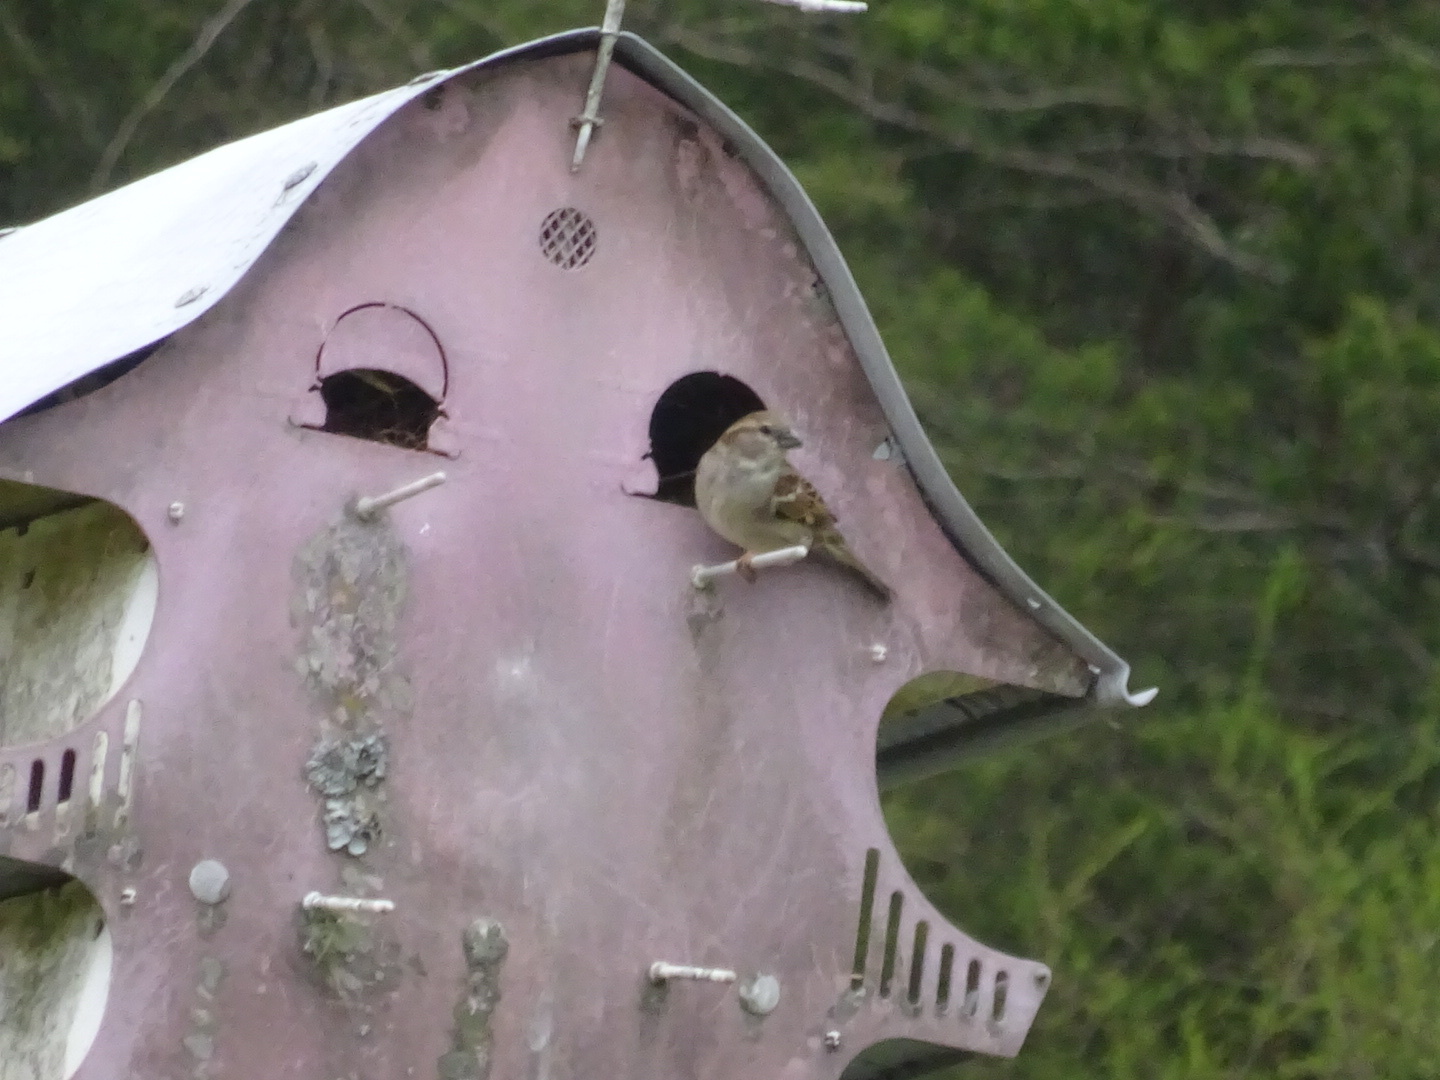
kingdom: Animalia
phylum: Chordata
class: Aves
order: Passeriformes
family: Passeridae
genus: Passer
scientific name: Passer domesticus
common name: House sparrow
